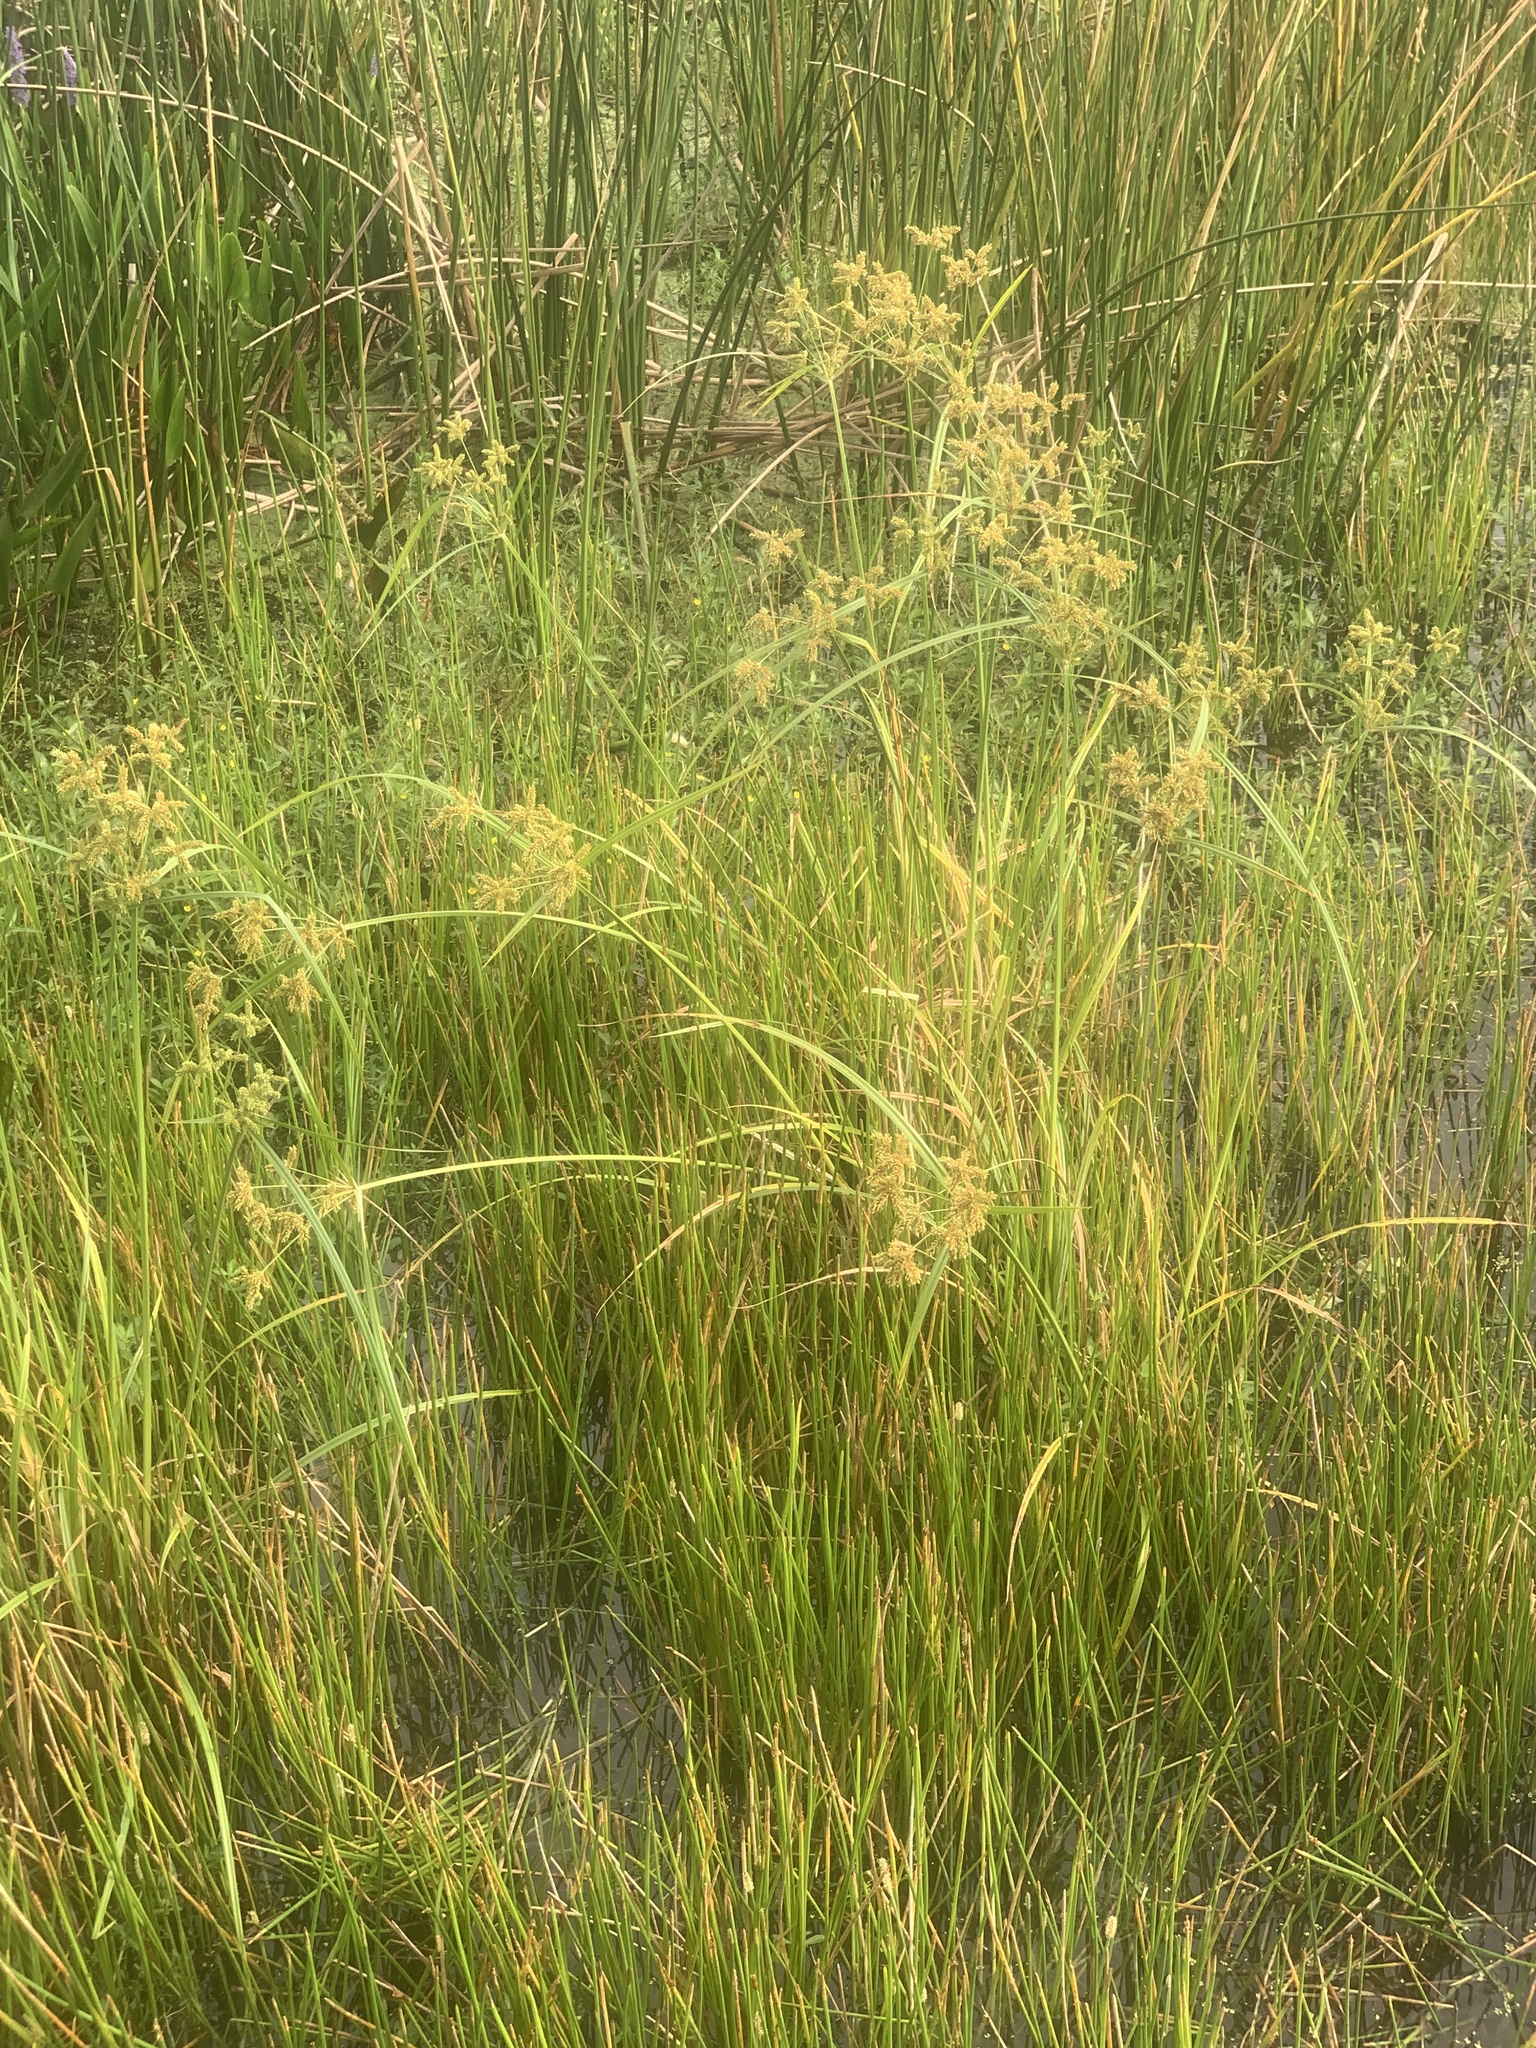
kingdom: Plantae
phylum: Tracheophyta
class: Liliopsida
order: Poales
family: Cyperaceae
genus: Cyperus
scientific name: Cyperus alopecuroides
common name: Foxtail flatsedge
